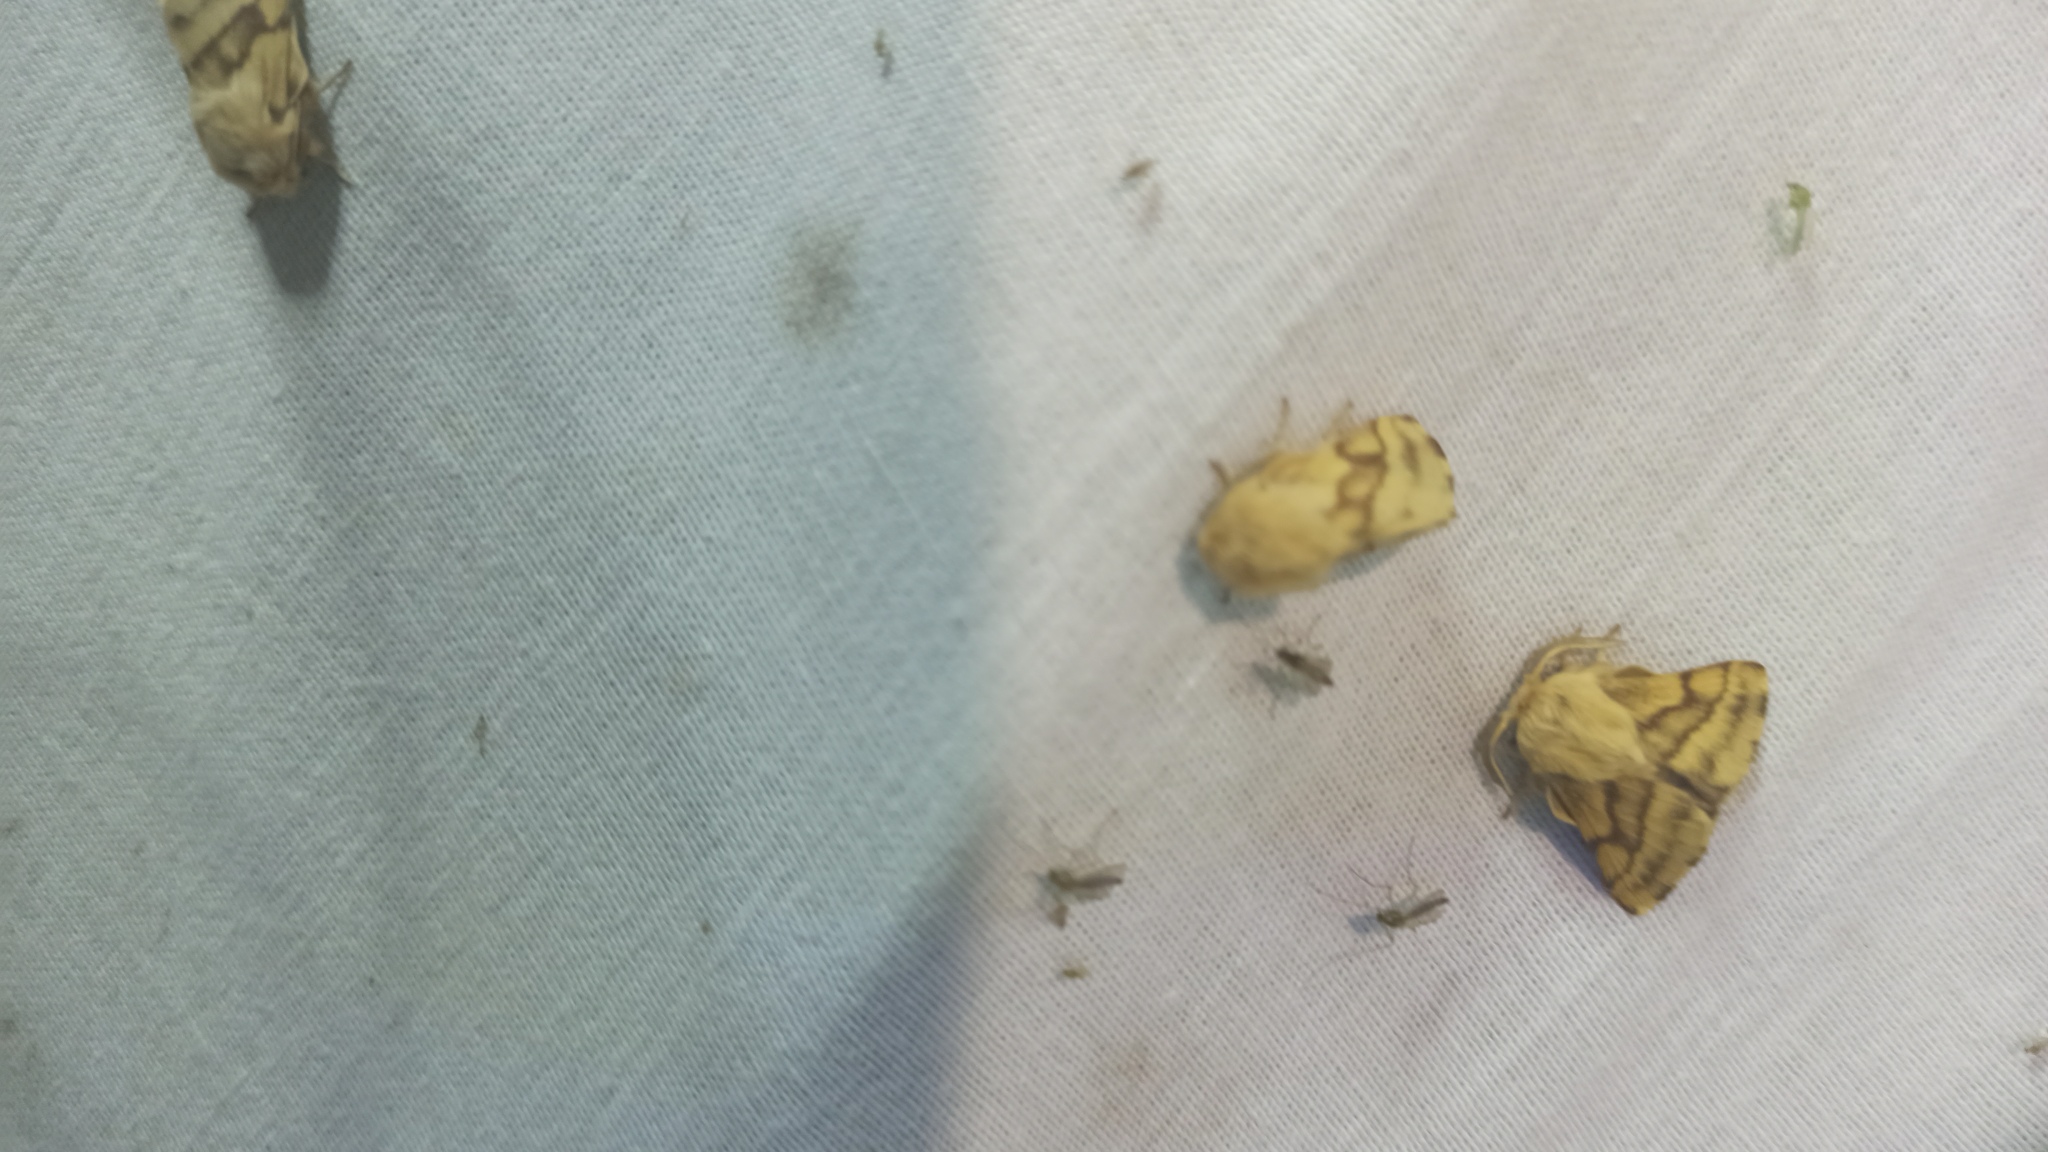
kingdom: Animalia
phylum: Arthropoda
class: Insecta
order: Lepidoptera
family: Lasiocampidae
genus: Malacosoma
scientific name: Malacosoma castrense
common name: Ground lackey
